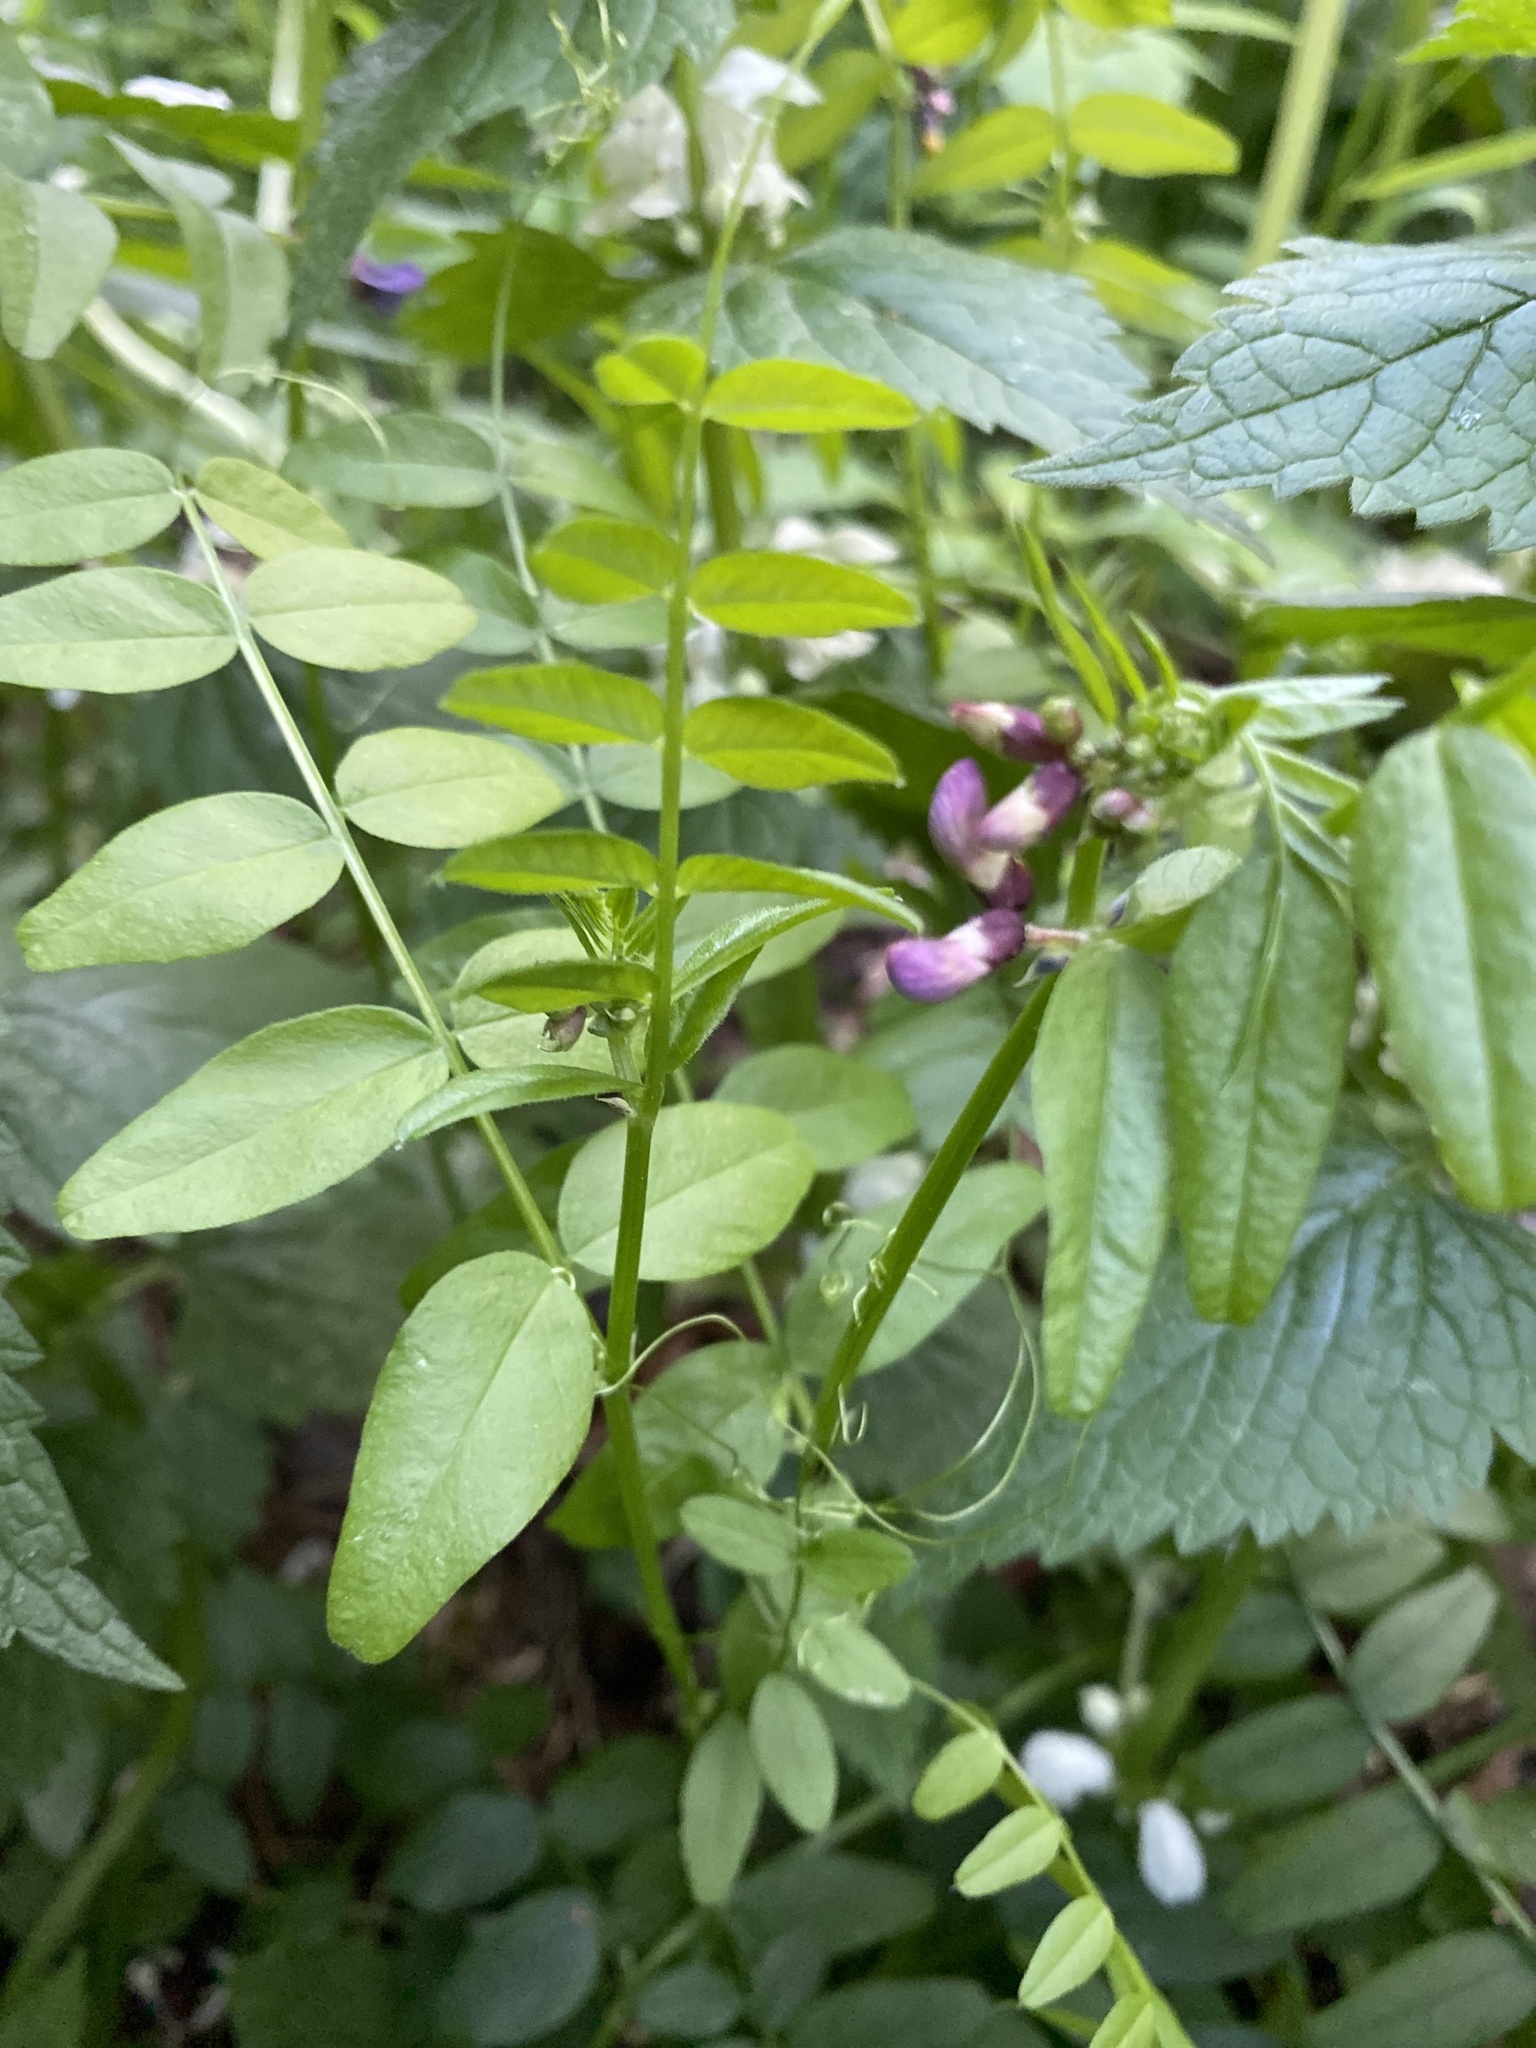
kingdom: Plantae
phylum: Tracheophyta
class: Magnoliopsida
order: Fabales
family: Fabaceae
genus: Vicia
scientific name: Vicia sepium
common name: Bush vetch
